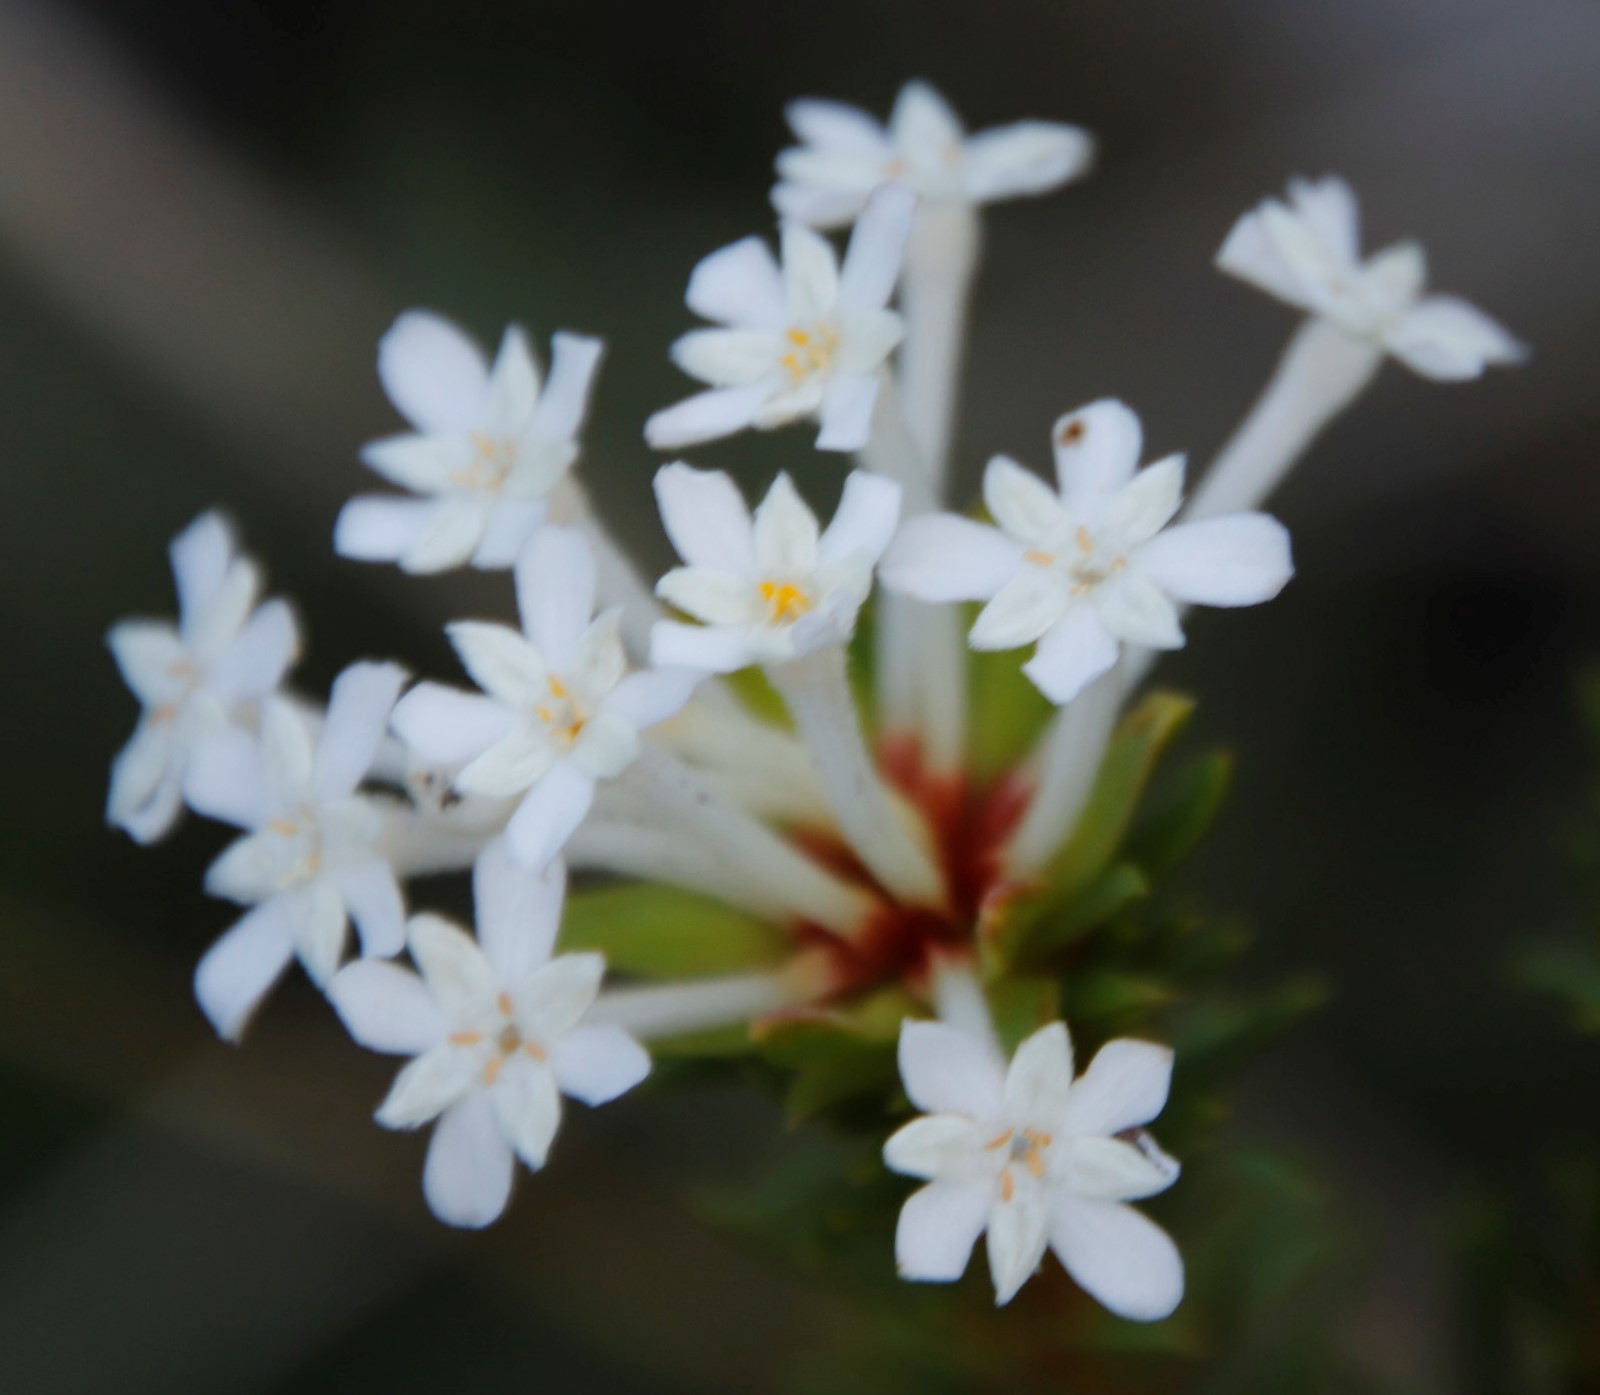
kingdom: Plantae
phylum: Tracheophyta
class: Magnoliopsida
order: Malvales
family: Thymelaeaceae
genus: Gnidia
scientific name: Gnidia pinifolia
